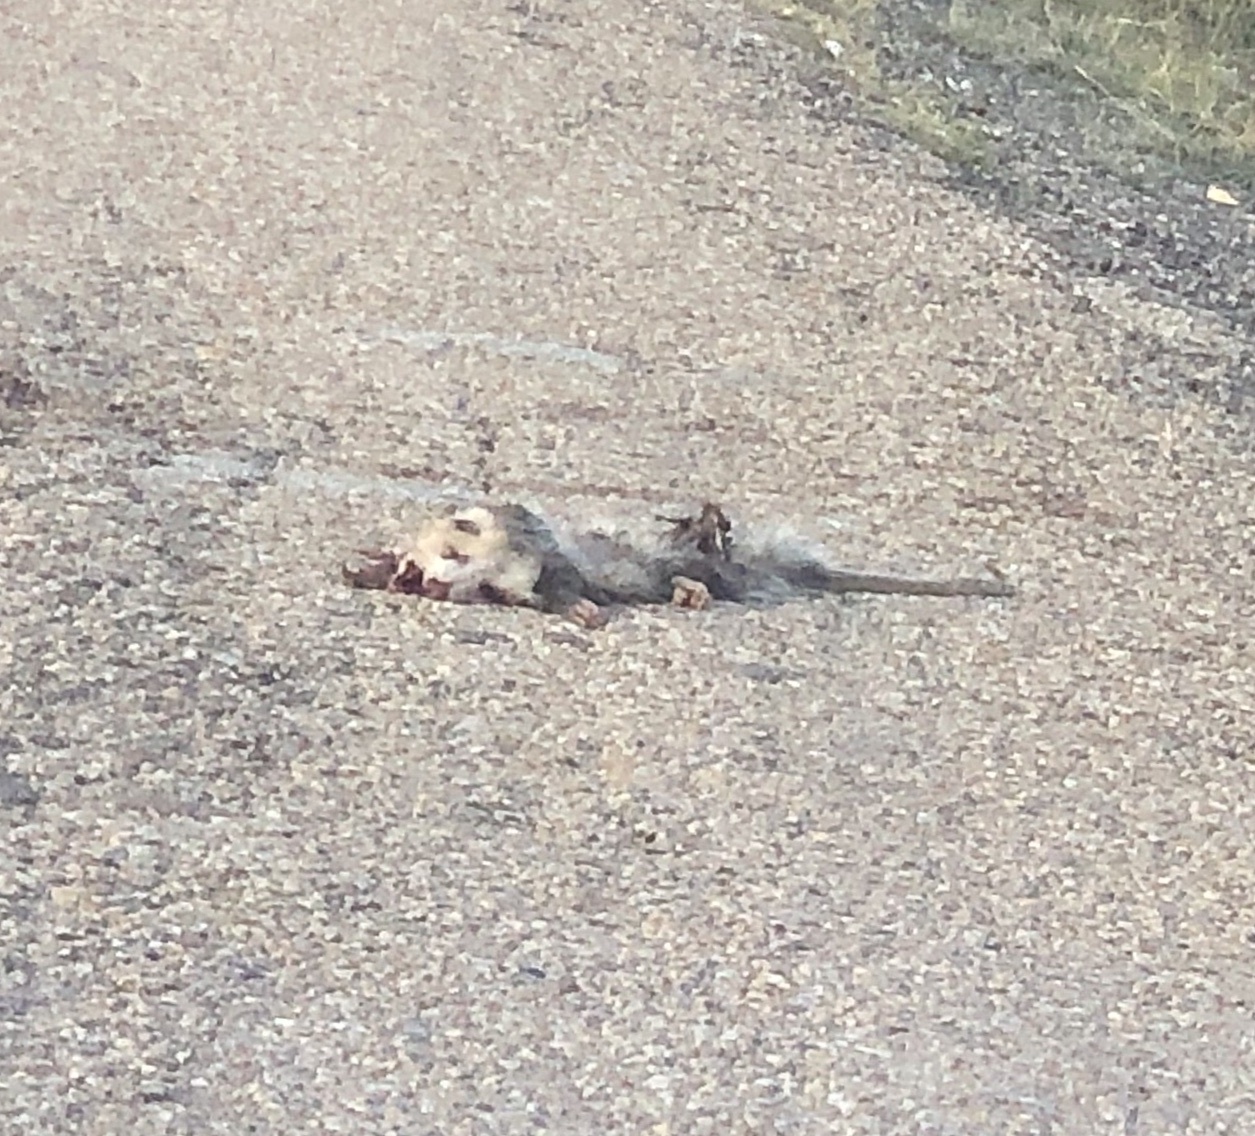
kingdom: Animalia
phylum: Chordata
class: Mammalia
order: Didelphimorphia
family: Didelphidae
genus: Didelphis
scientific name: Didelphis virginiana
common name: Virginia opossum
